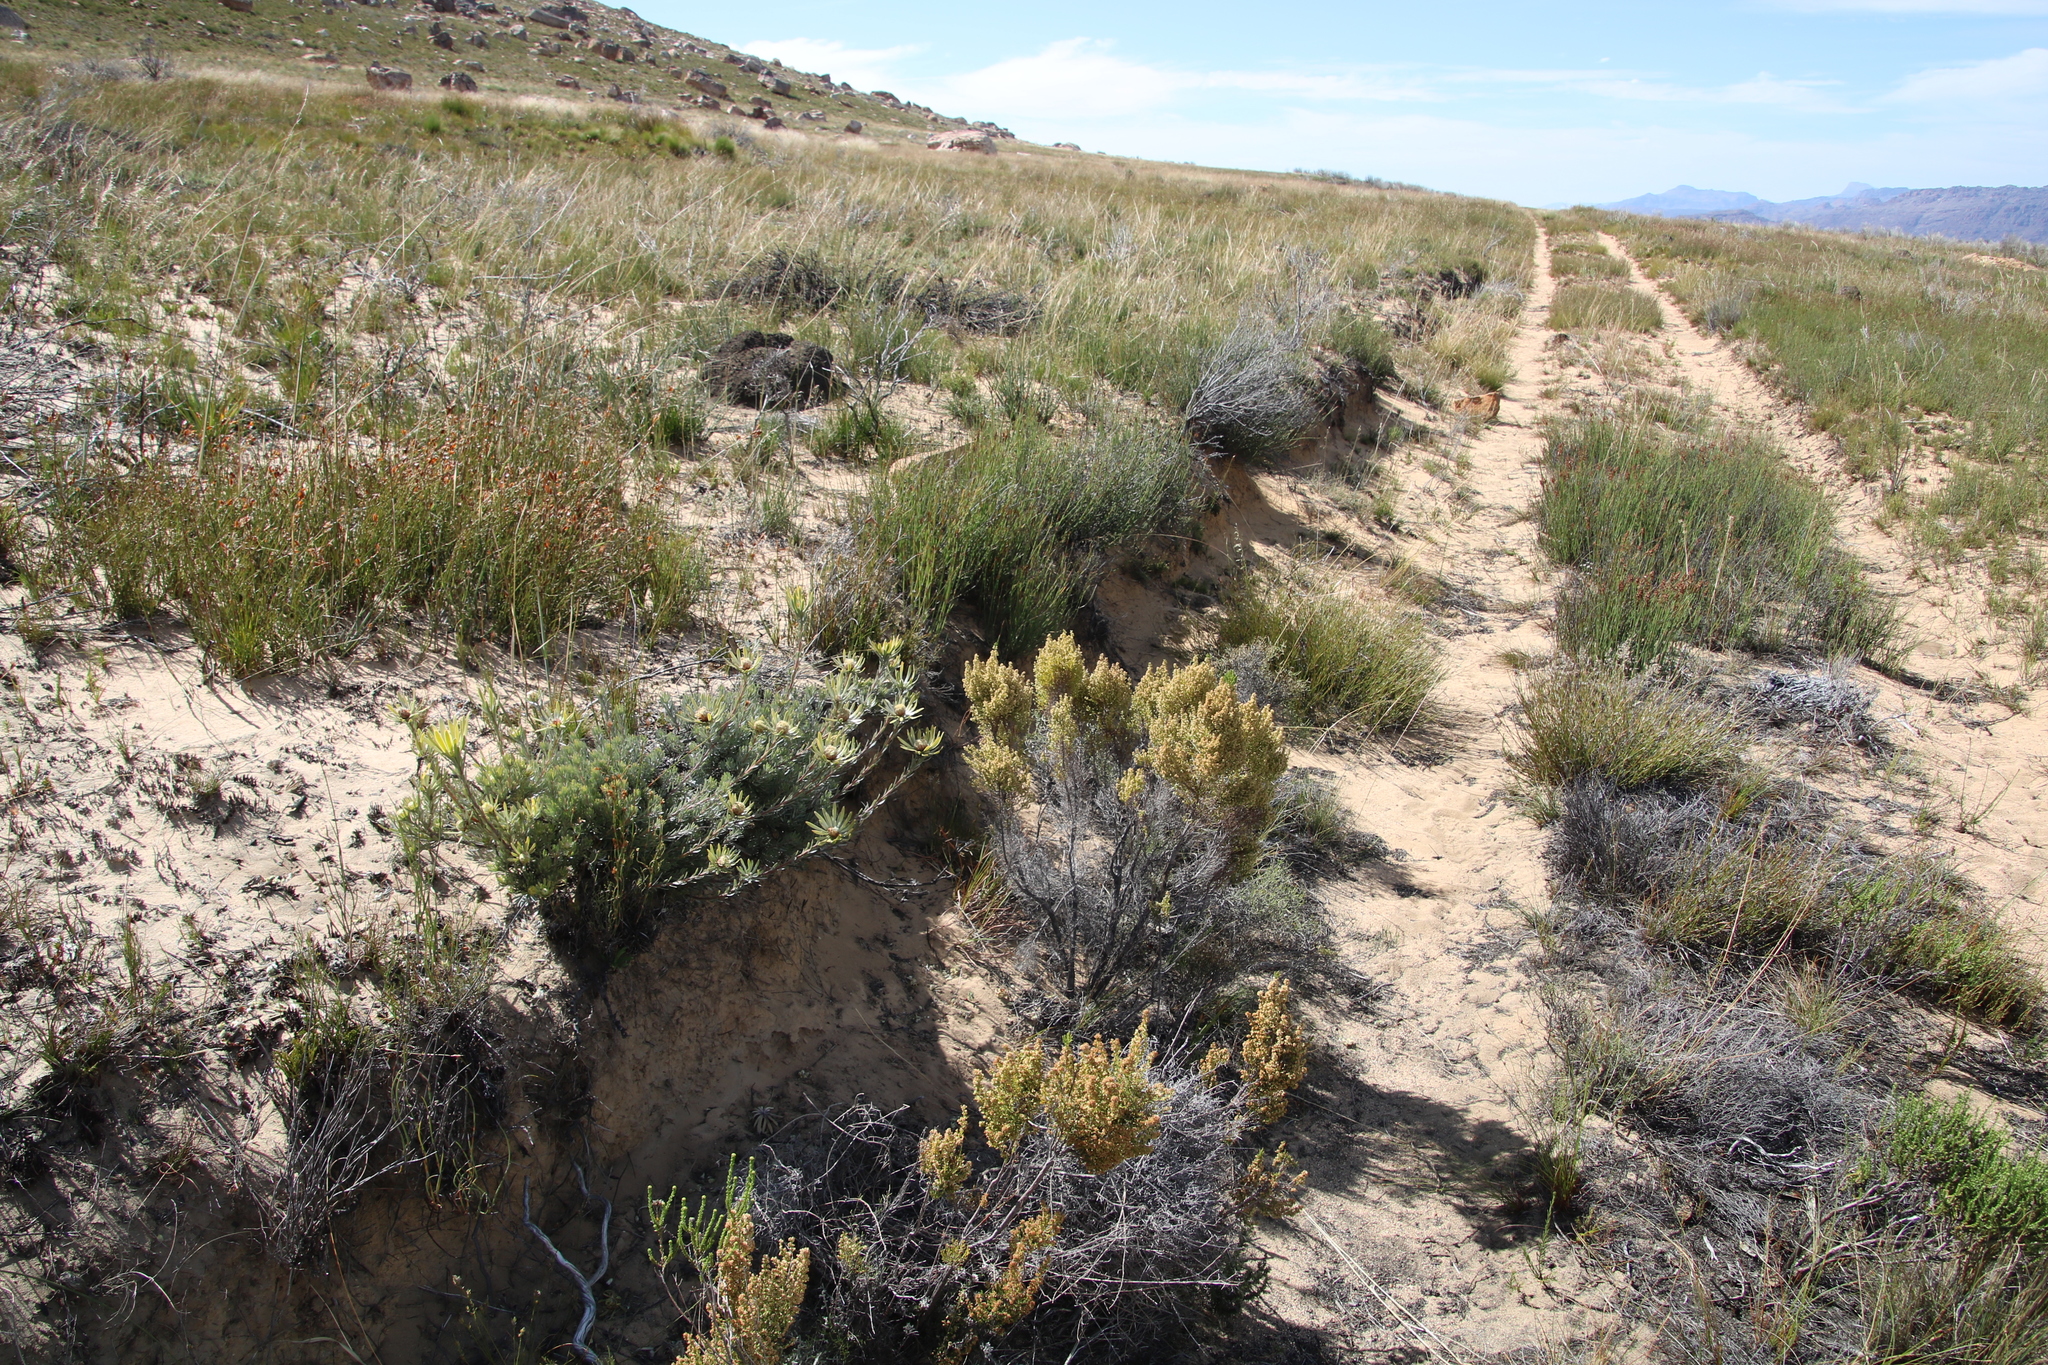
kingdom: Plantae
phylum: Tracheophyta
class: Magnoliopsida
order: Ericales
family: Ericaceae
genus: Erica
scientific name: Erica leucanthera
